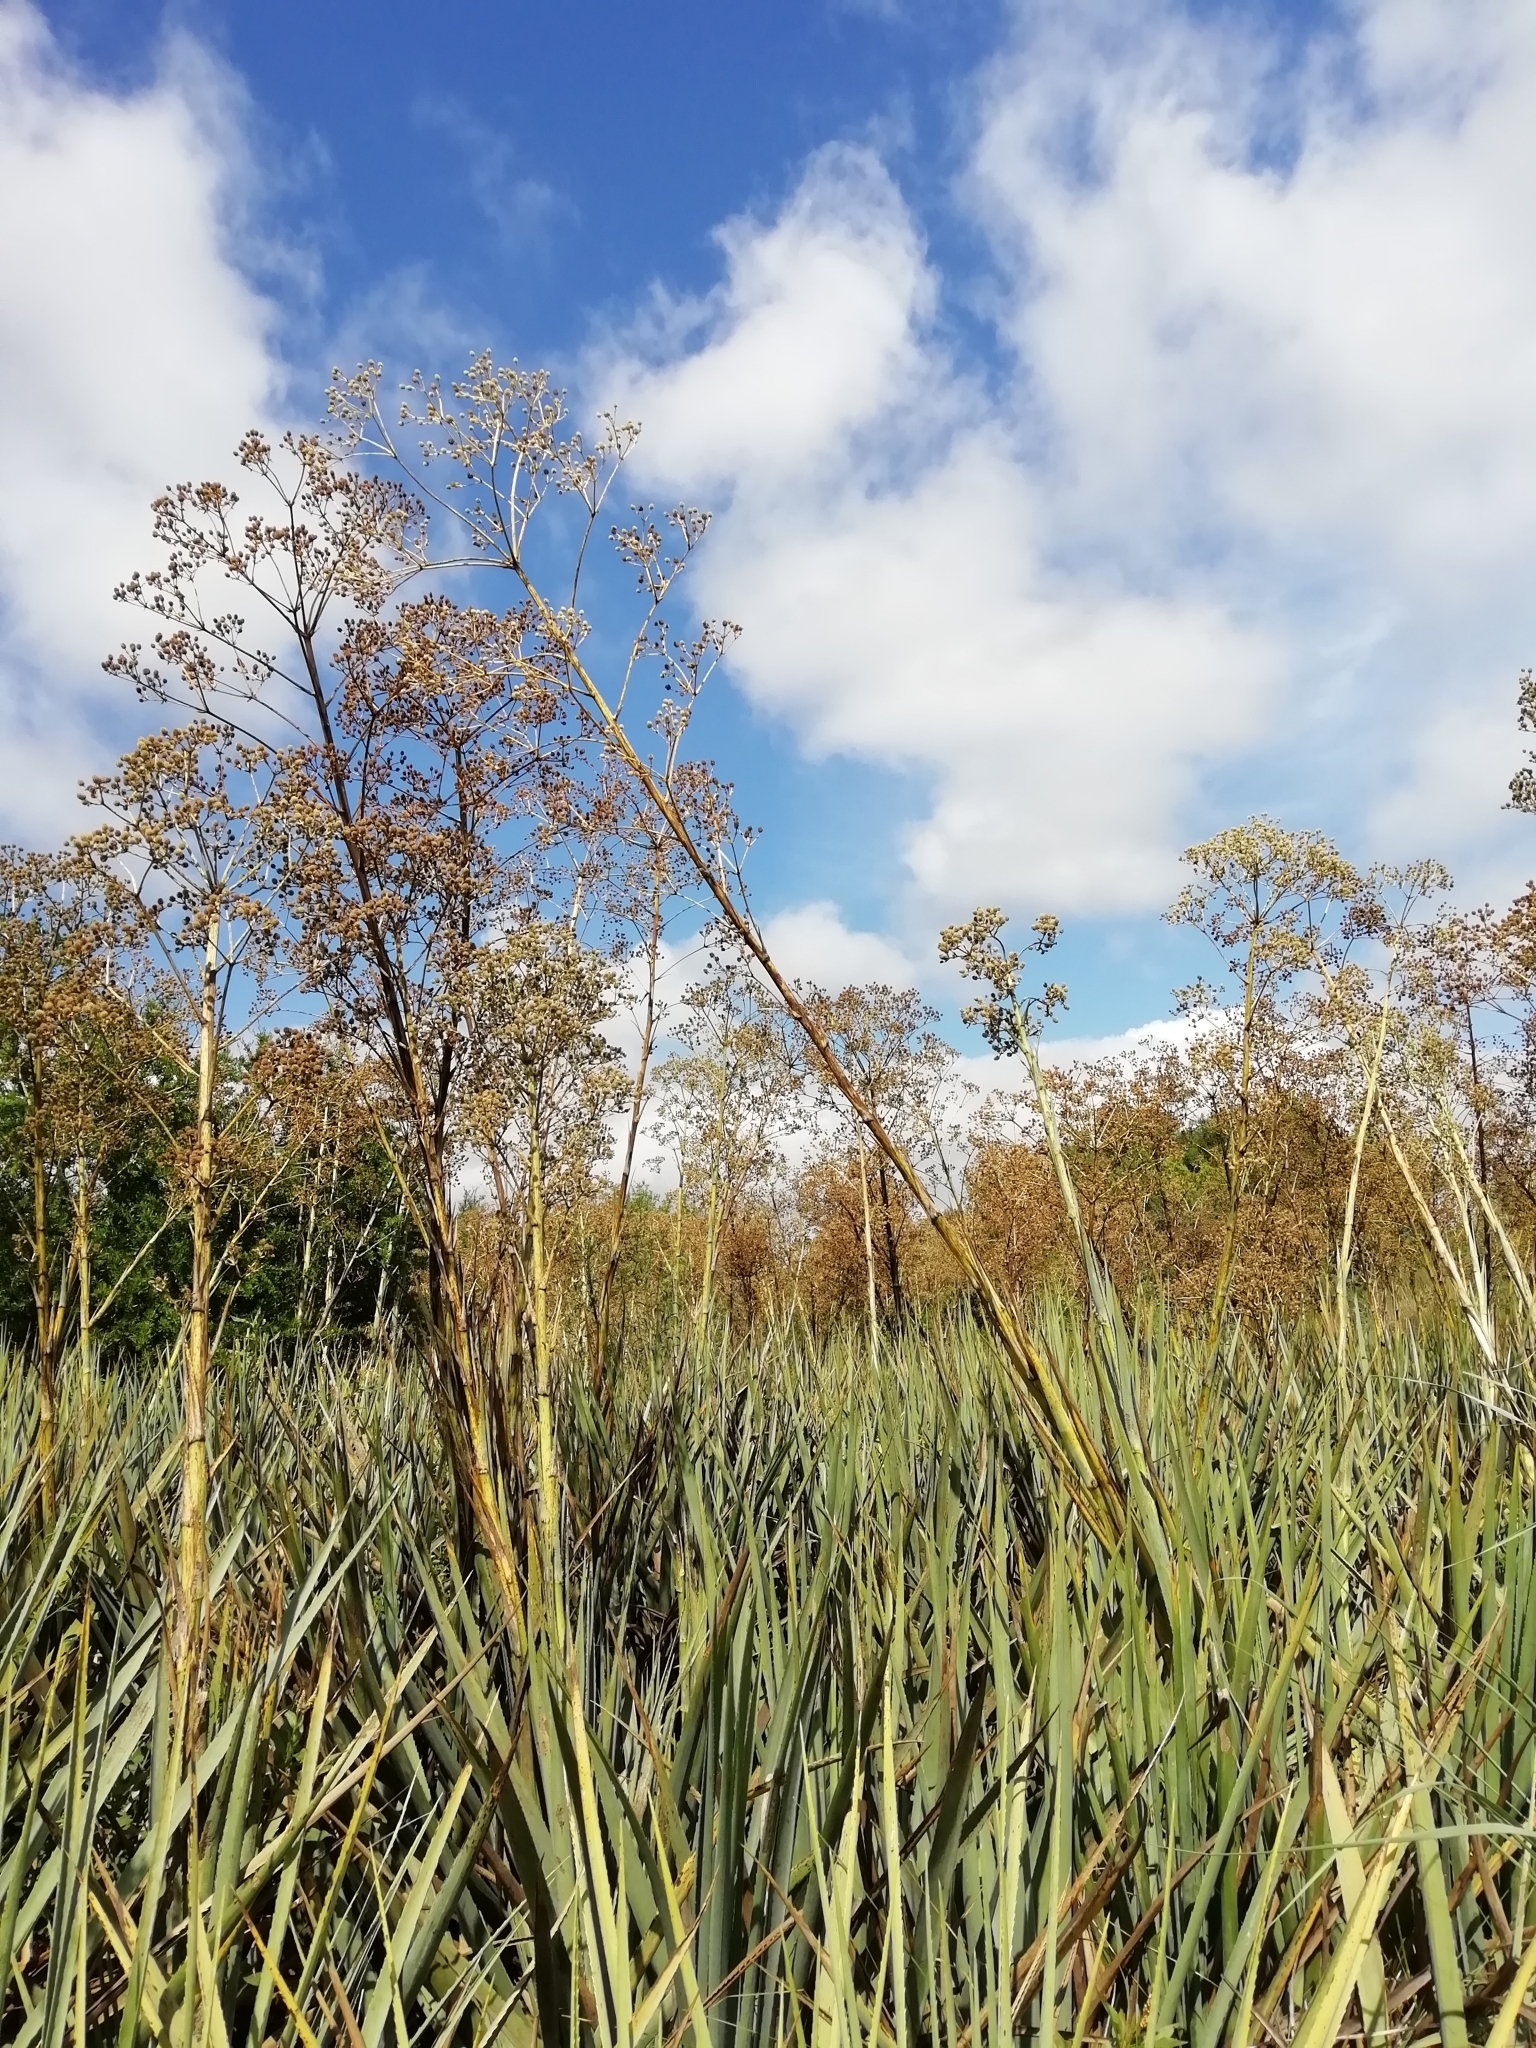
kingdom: Plantae
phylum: Tracheophyta
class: Magnoliopsida
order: Apiales
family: Apiaceae
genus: Eryngium
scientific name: Eryngium pandanifolium
